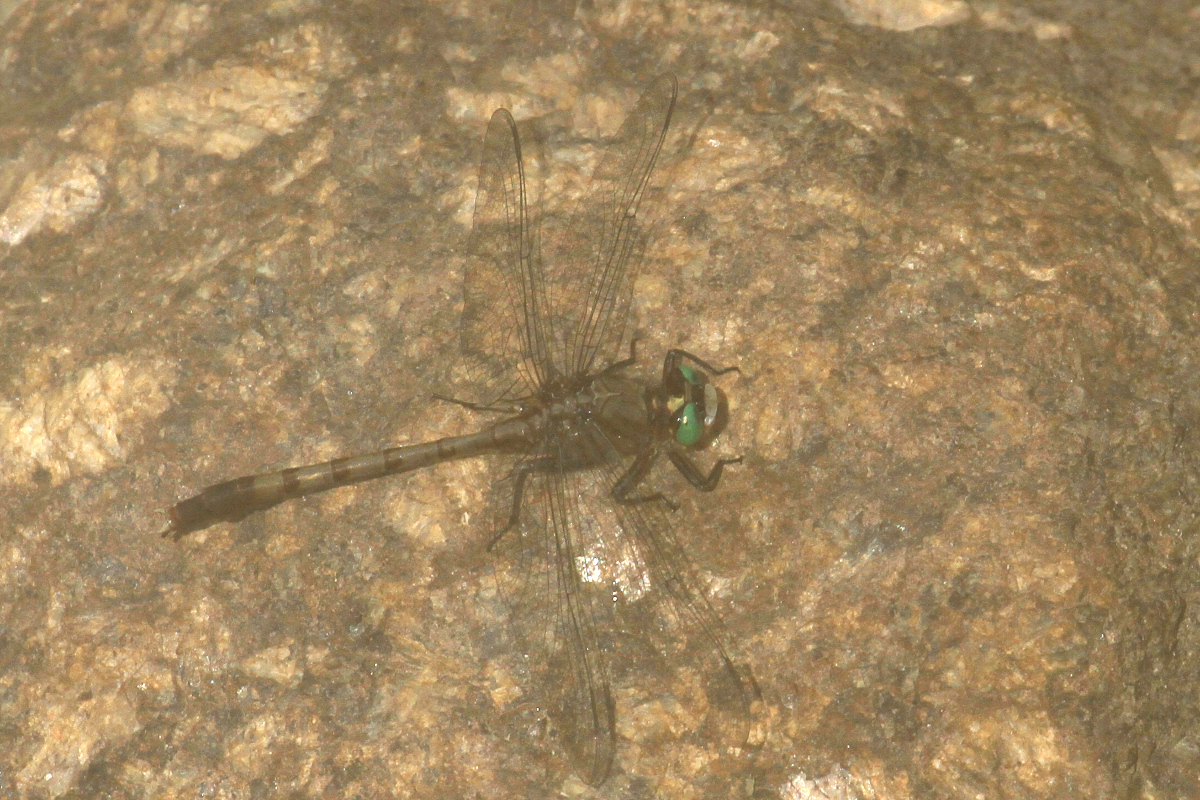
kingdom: Animalia
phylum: Arthropoda
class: Insecta
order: Odonata
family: Gomphidae
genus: Arigomphus
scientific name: Arigomphus pallidus
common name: Gray-green clubtail
